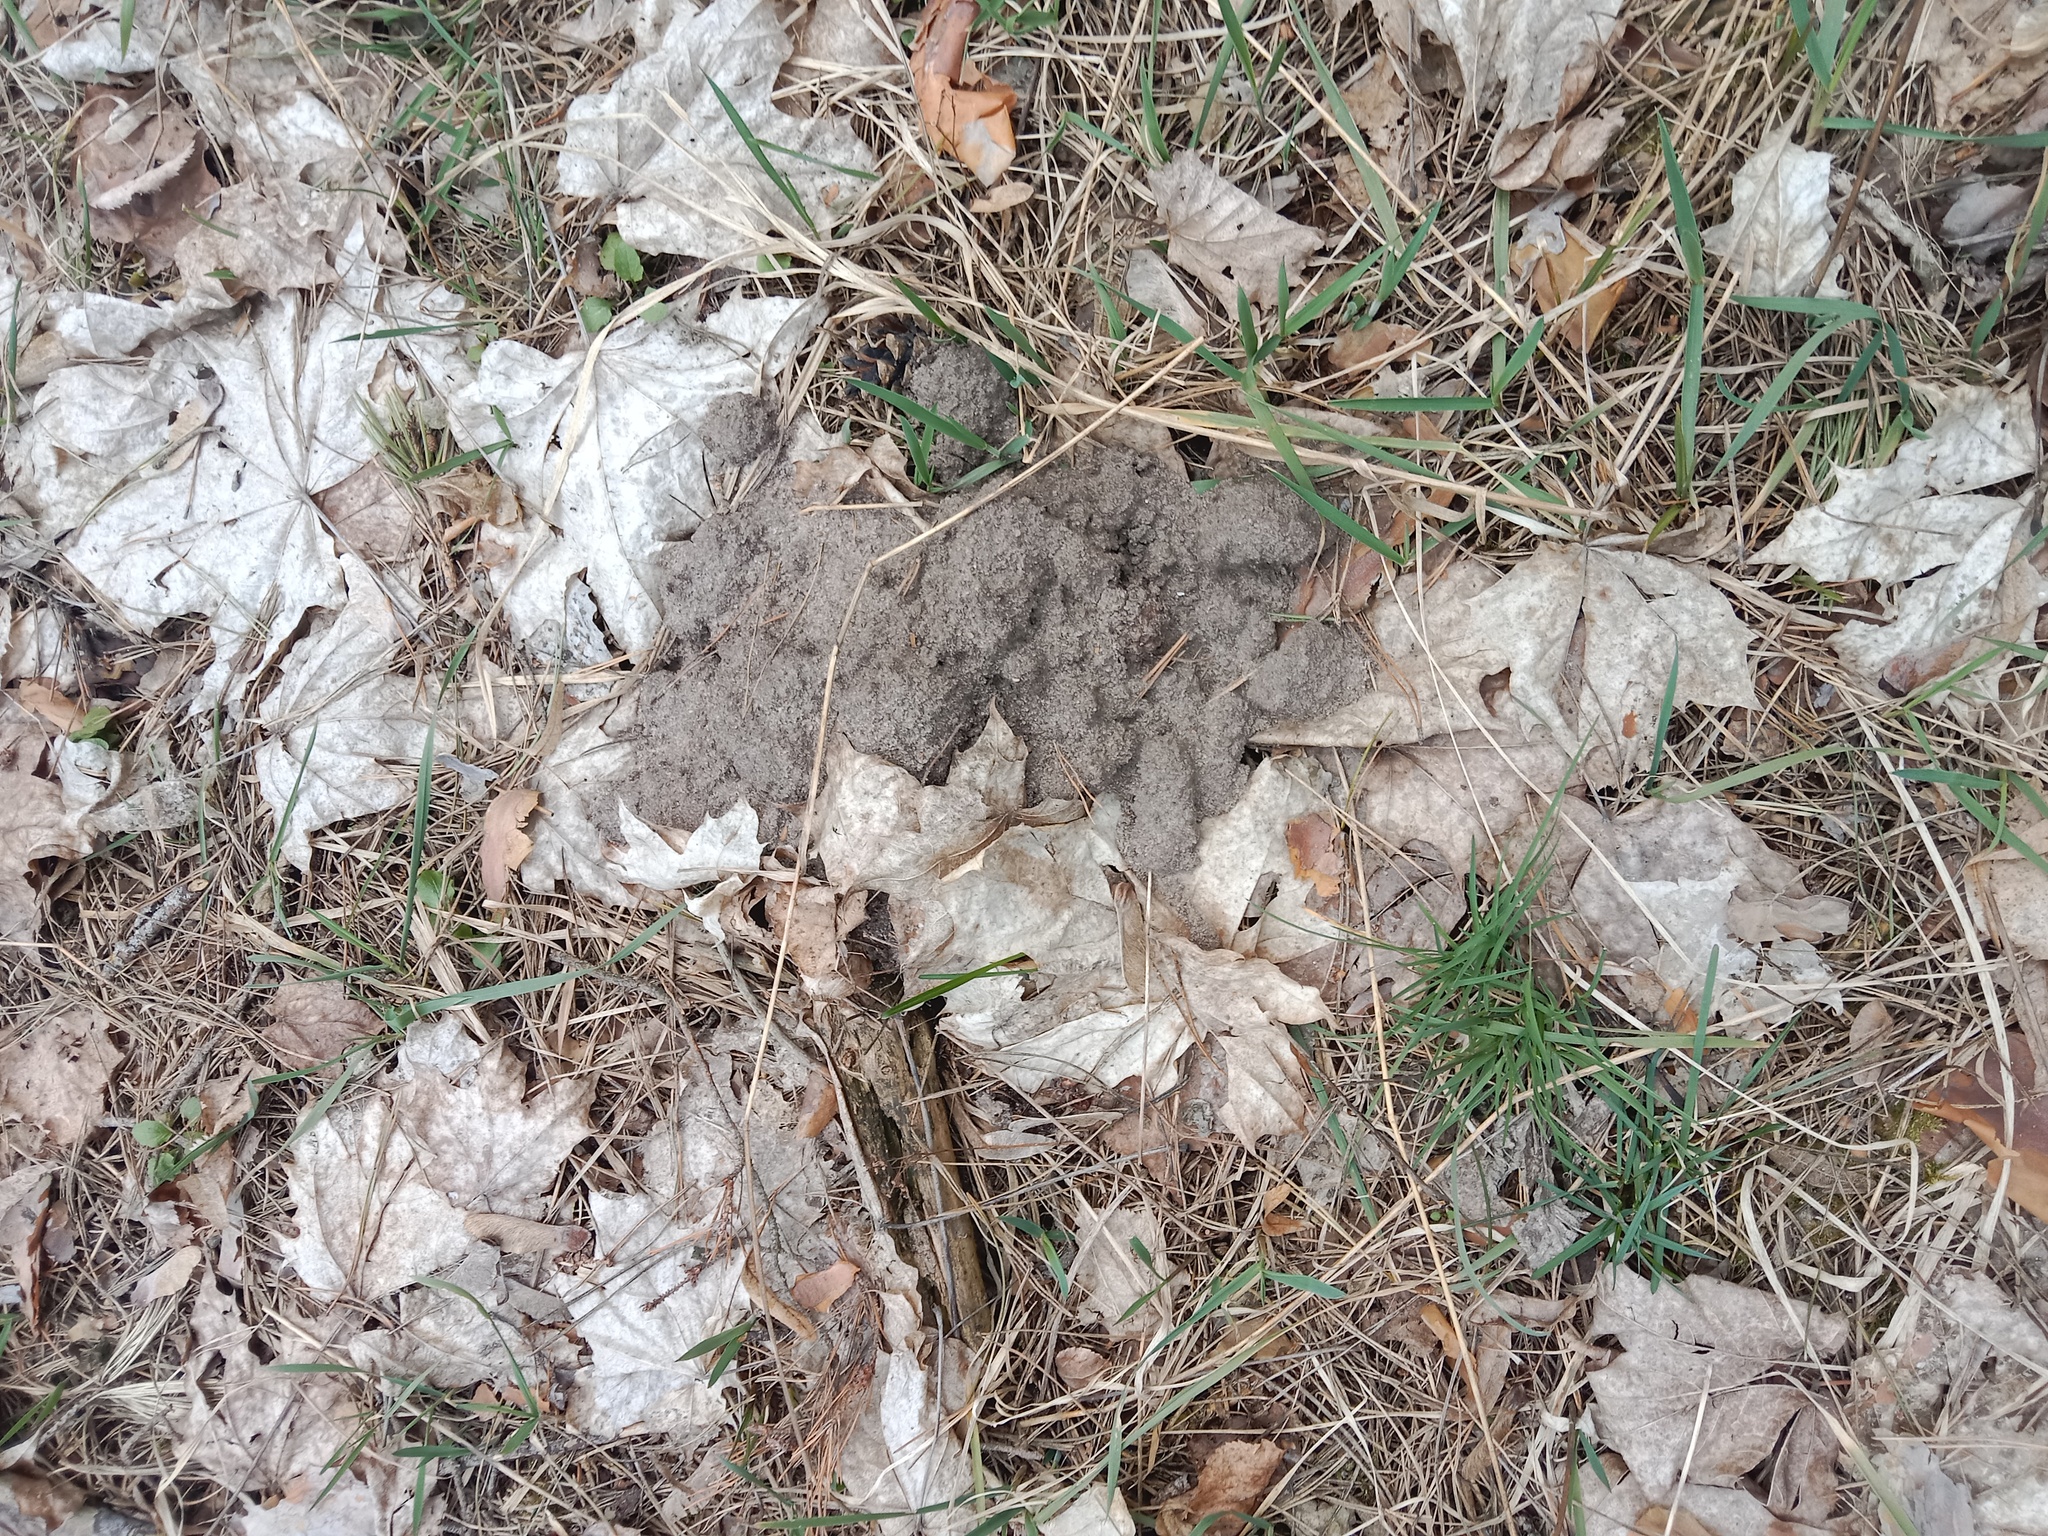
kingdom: Animalia
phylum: Chordata
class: Mammalia
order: Soricomorpha
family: Talpidae
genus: Talpa
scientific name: Talpa europaea
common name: European mole
